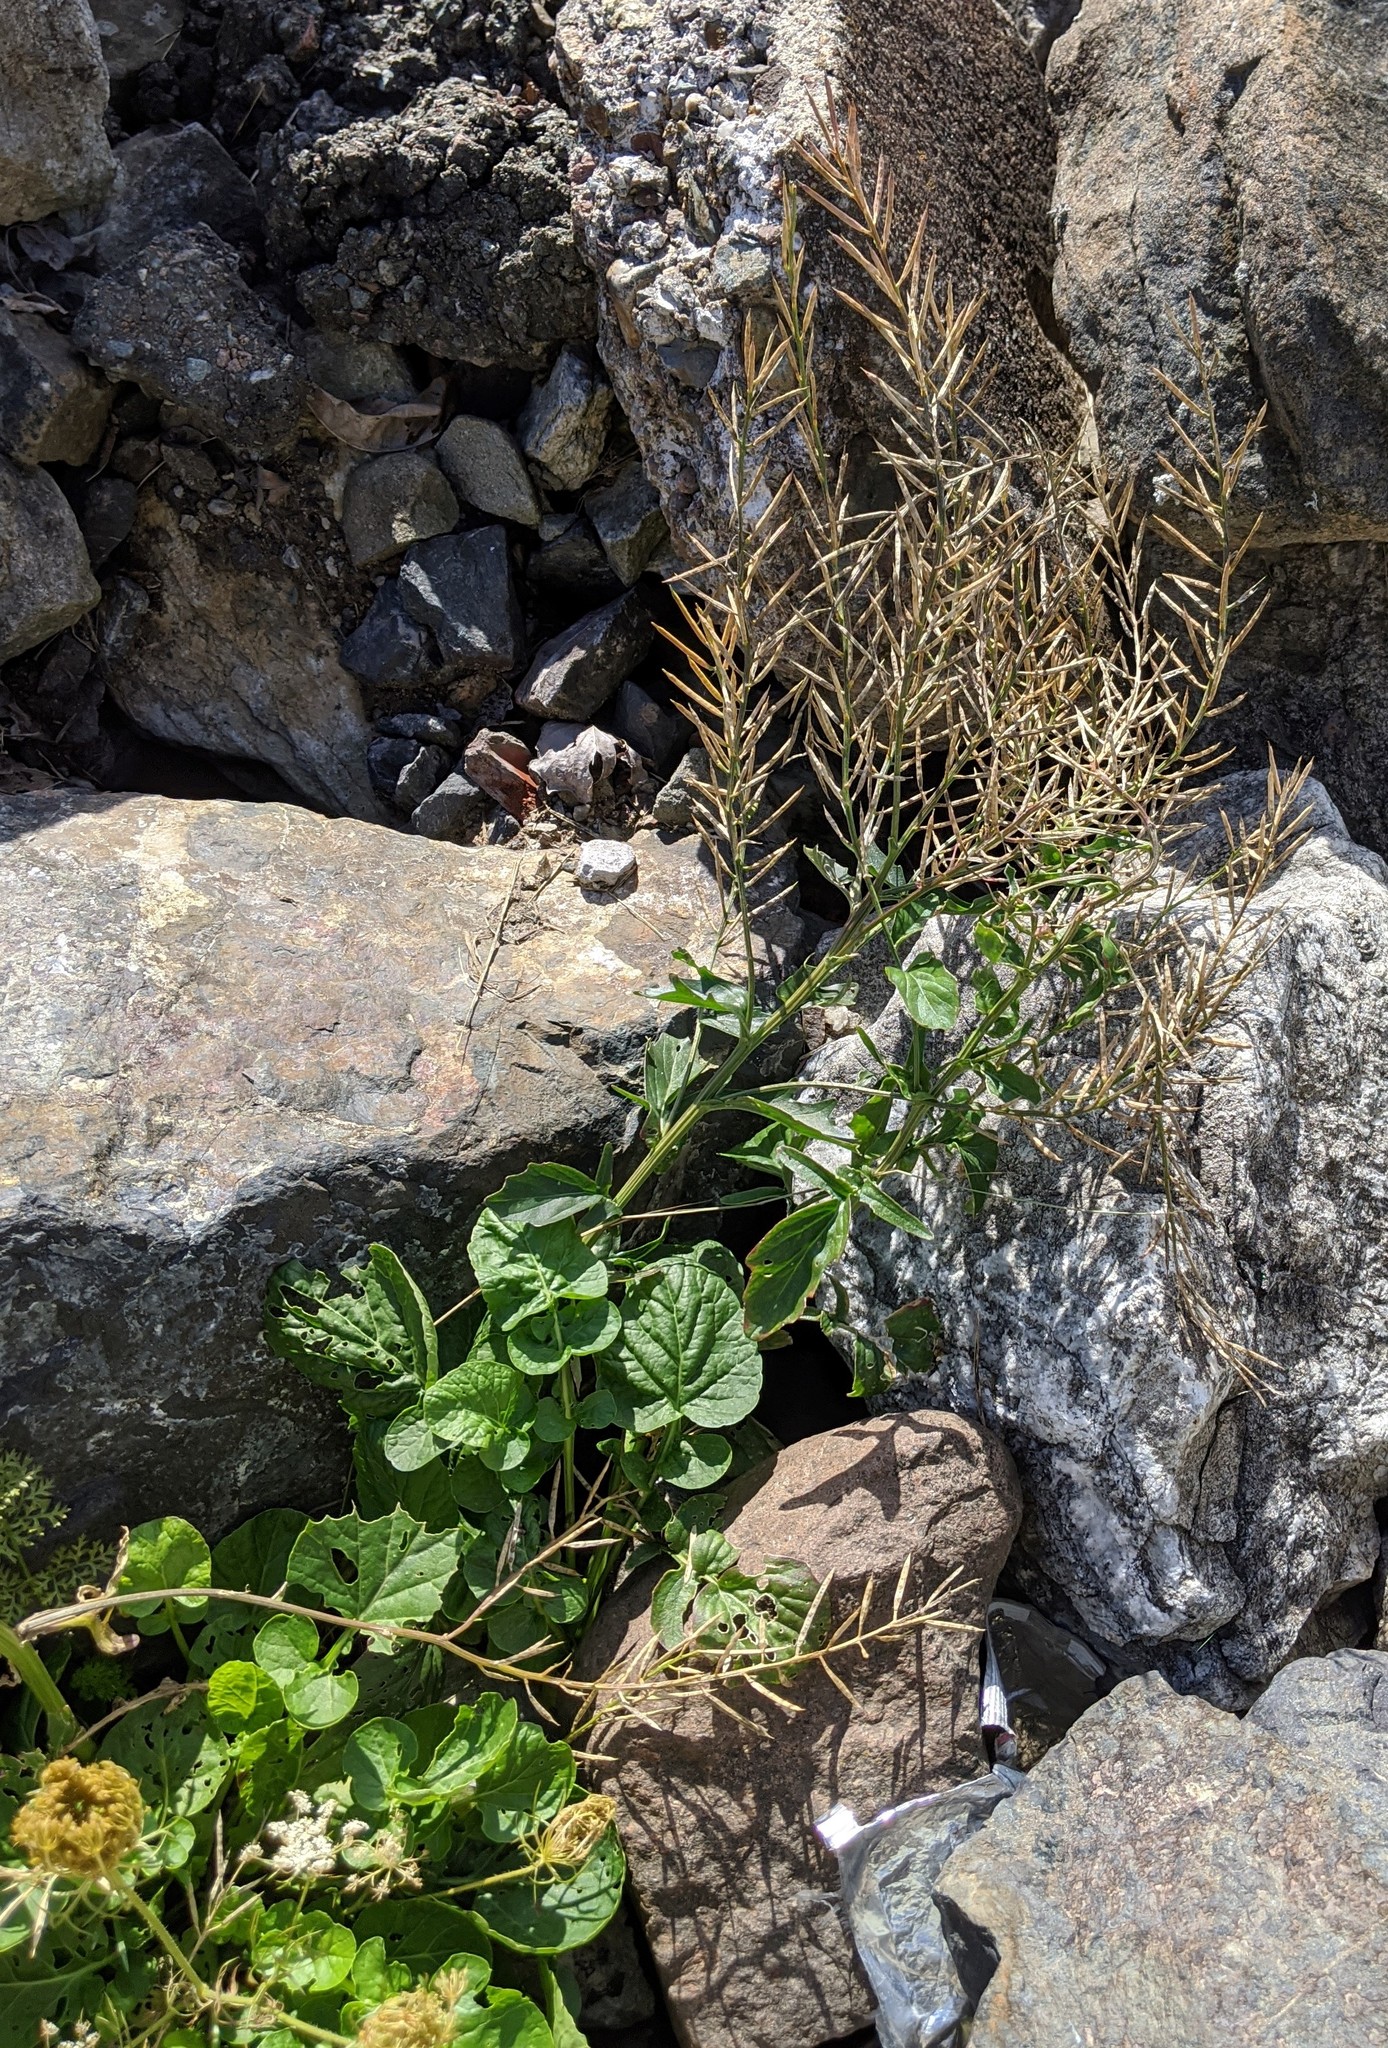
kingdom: Plantae
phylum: Tracheophyta
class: Magnoliopsida
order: Brassicales
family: Brassicaceae
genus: Barbarea
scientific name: Barbarea vulgaris
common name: Cressy-greens
